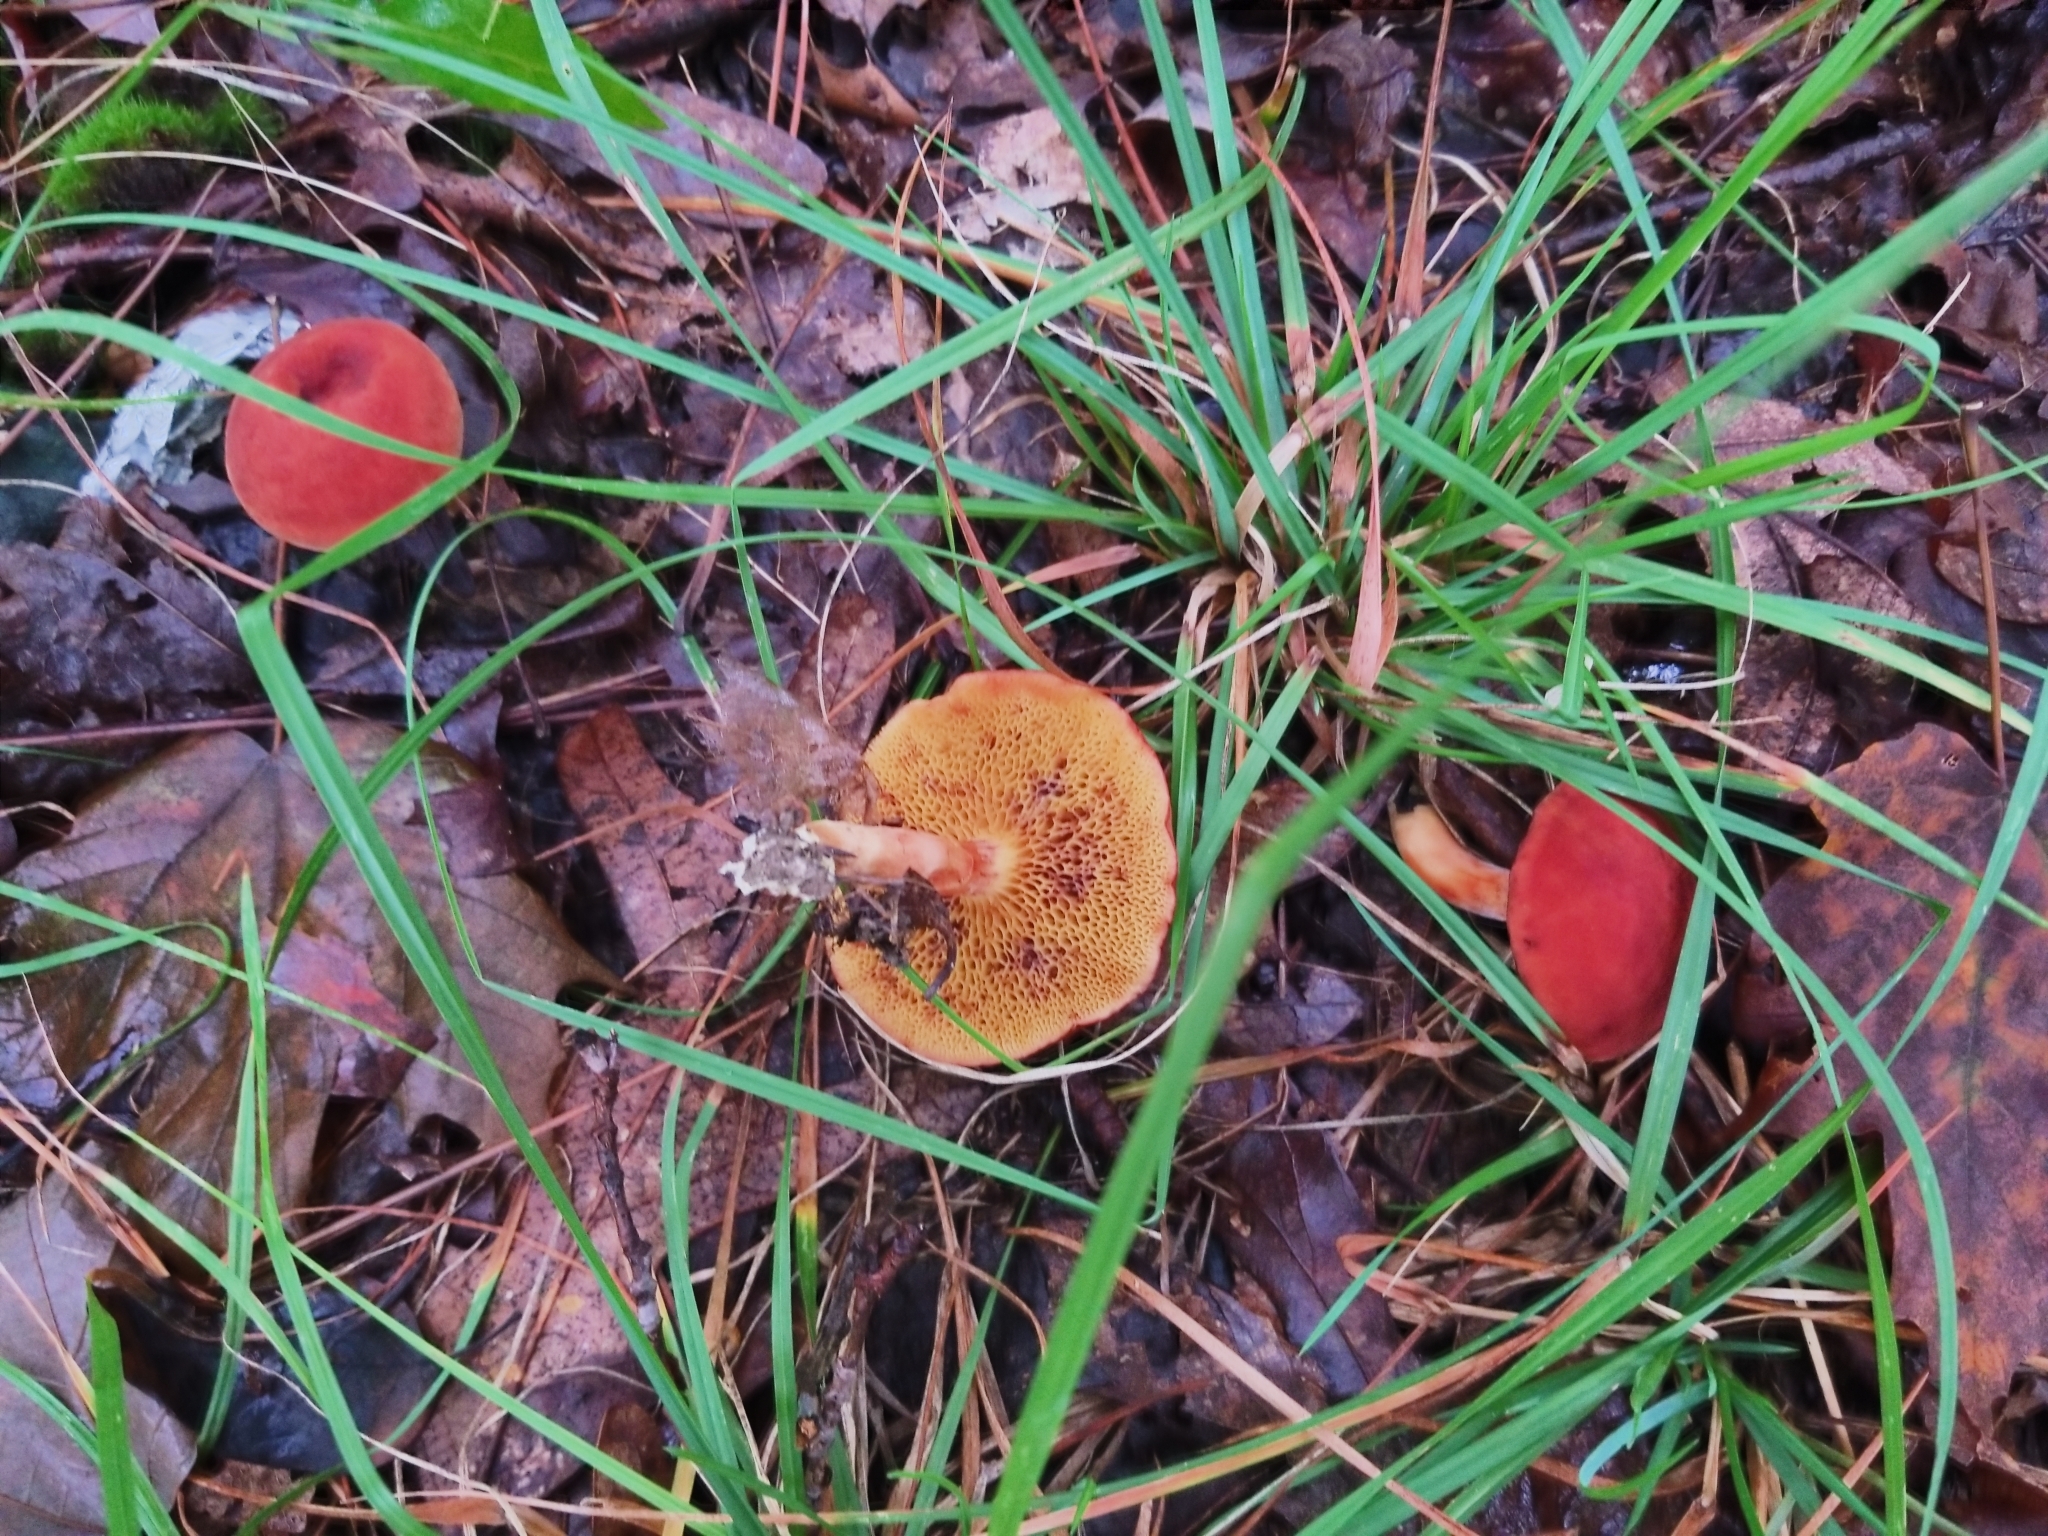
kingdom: Fungi
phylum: Basidiomycota
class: Agaricomycetes
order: Boletales
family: Boletaceae
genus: Hortiboletus
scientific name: Hortiboletus rubellus
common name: Ruby bolete
